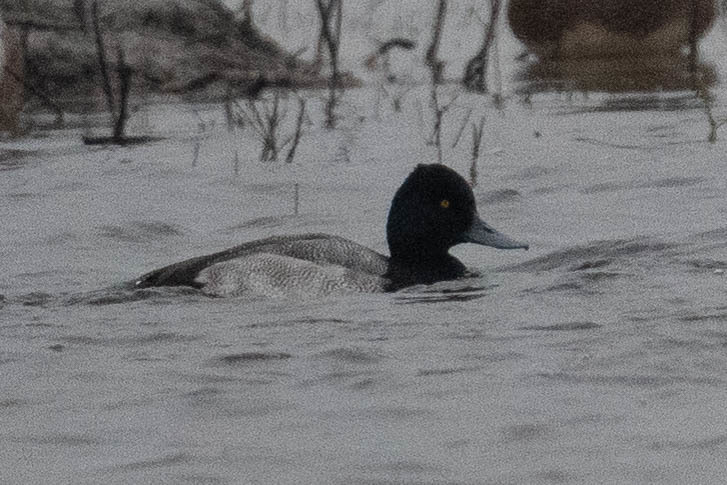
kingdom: Animalia
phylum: Chordata
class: Aves
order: Anseriformes
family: Anatidae
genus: Aythya
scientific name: Aythya affinis
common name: Lesser scaup
